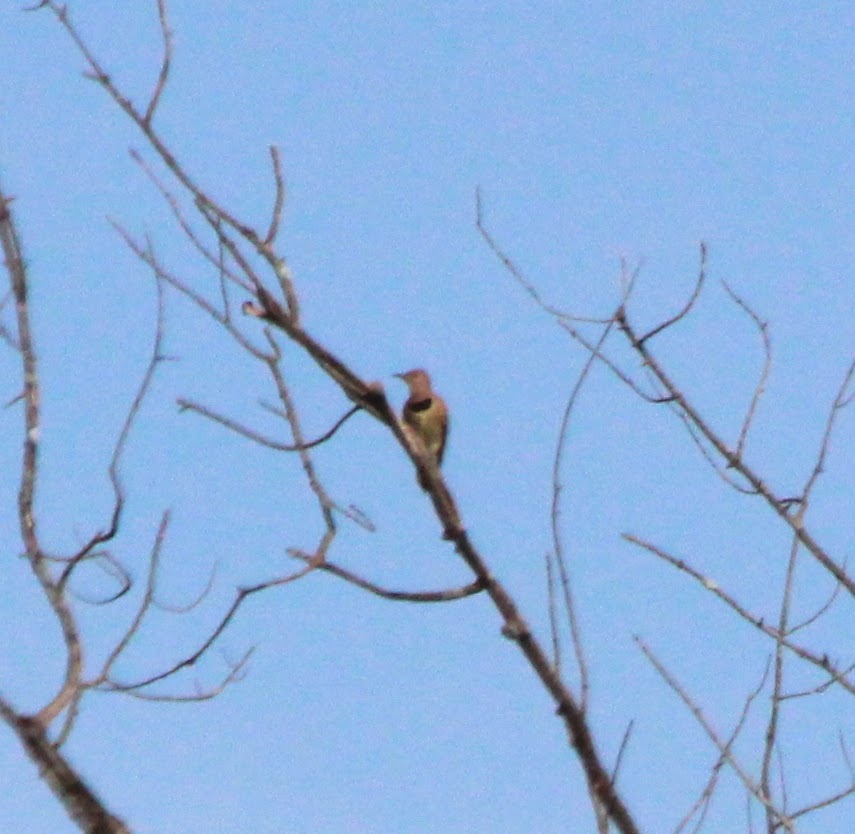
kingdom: Animalia
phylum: Chordata
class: Aves
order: Piciformes
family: Picidae
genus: Colaptes
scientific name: Colaptes auratus
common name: Northern flicker
